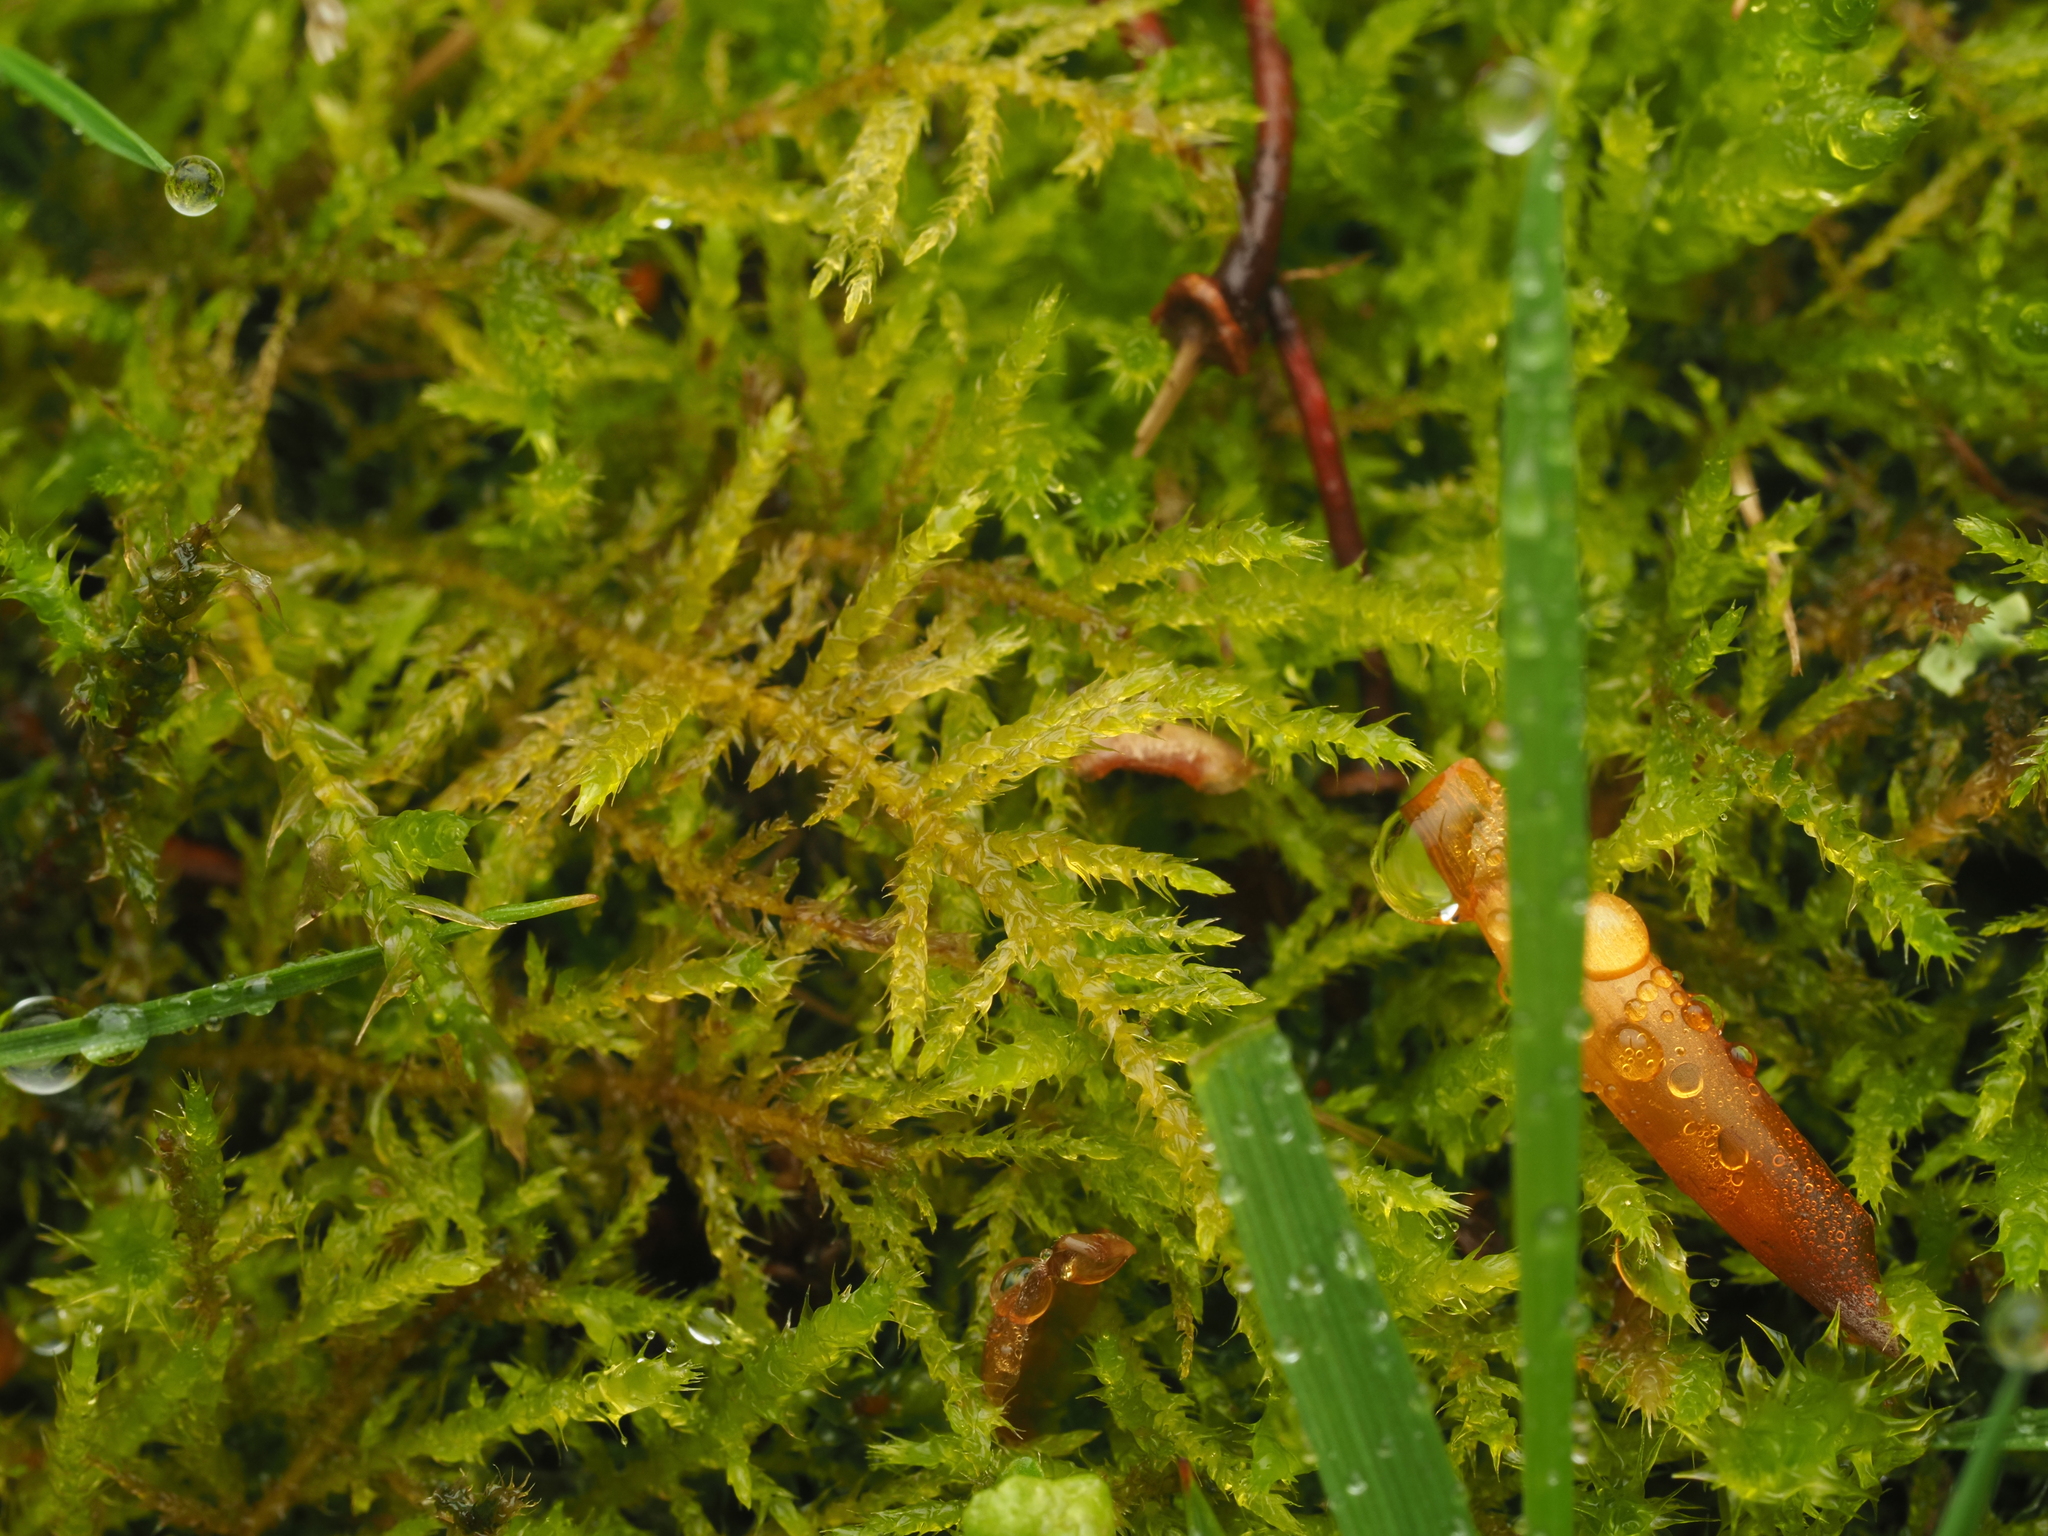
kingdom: Plantae
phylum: Bryophyta
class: Bryopsida
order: Hypnales
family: Brachytheciaceae
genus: Kindbergia
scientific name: Kindbergia praelonga
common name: Slender beaked moss
